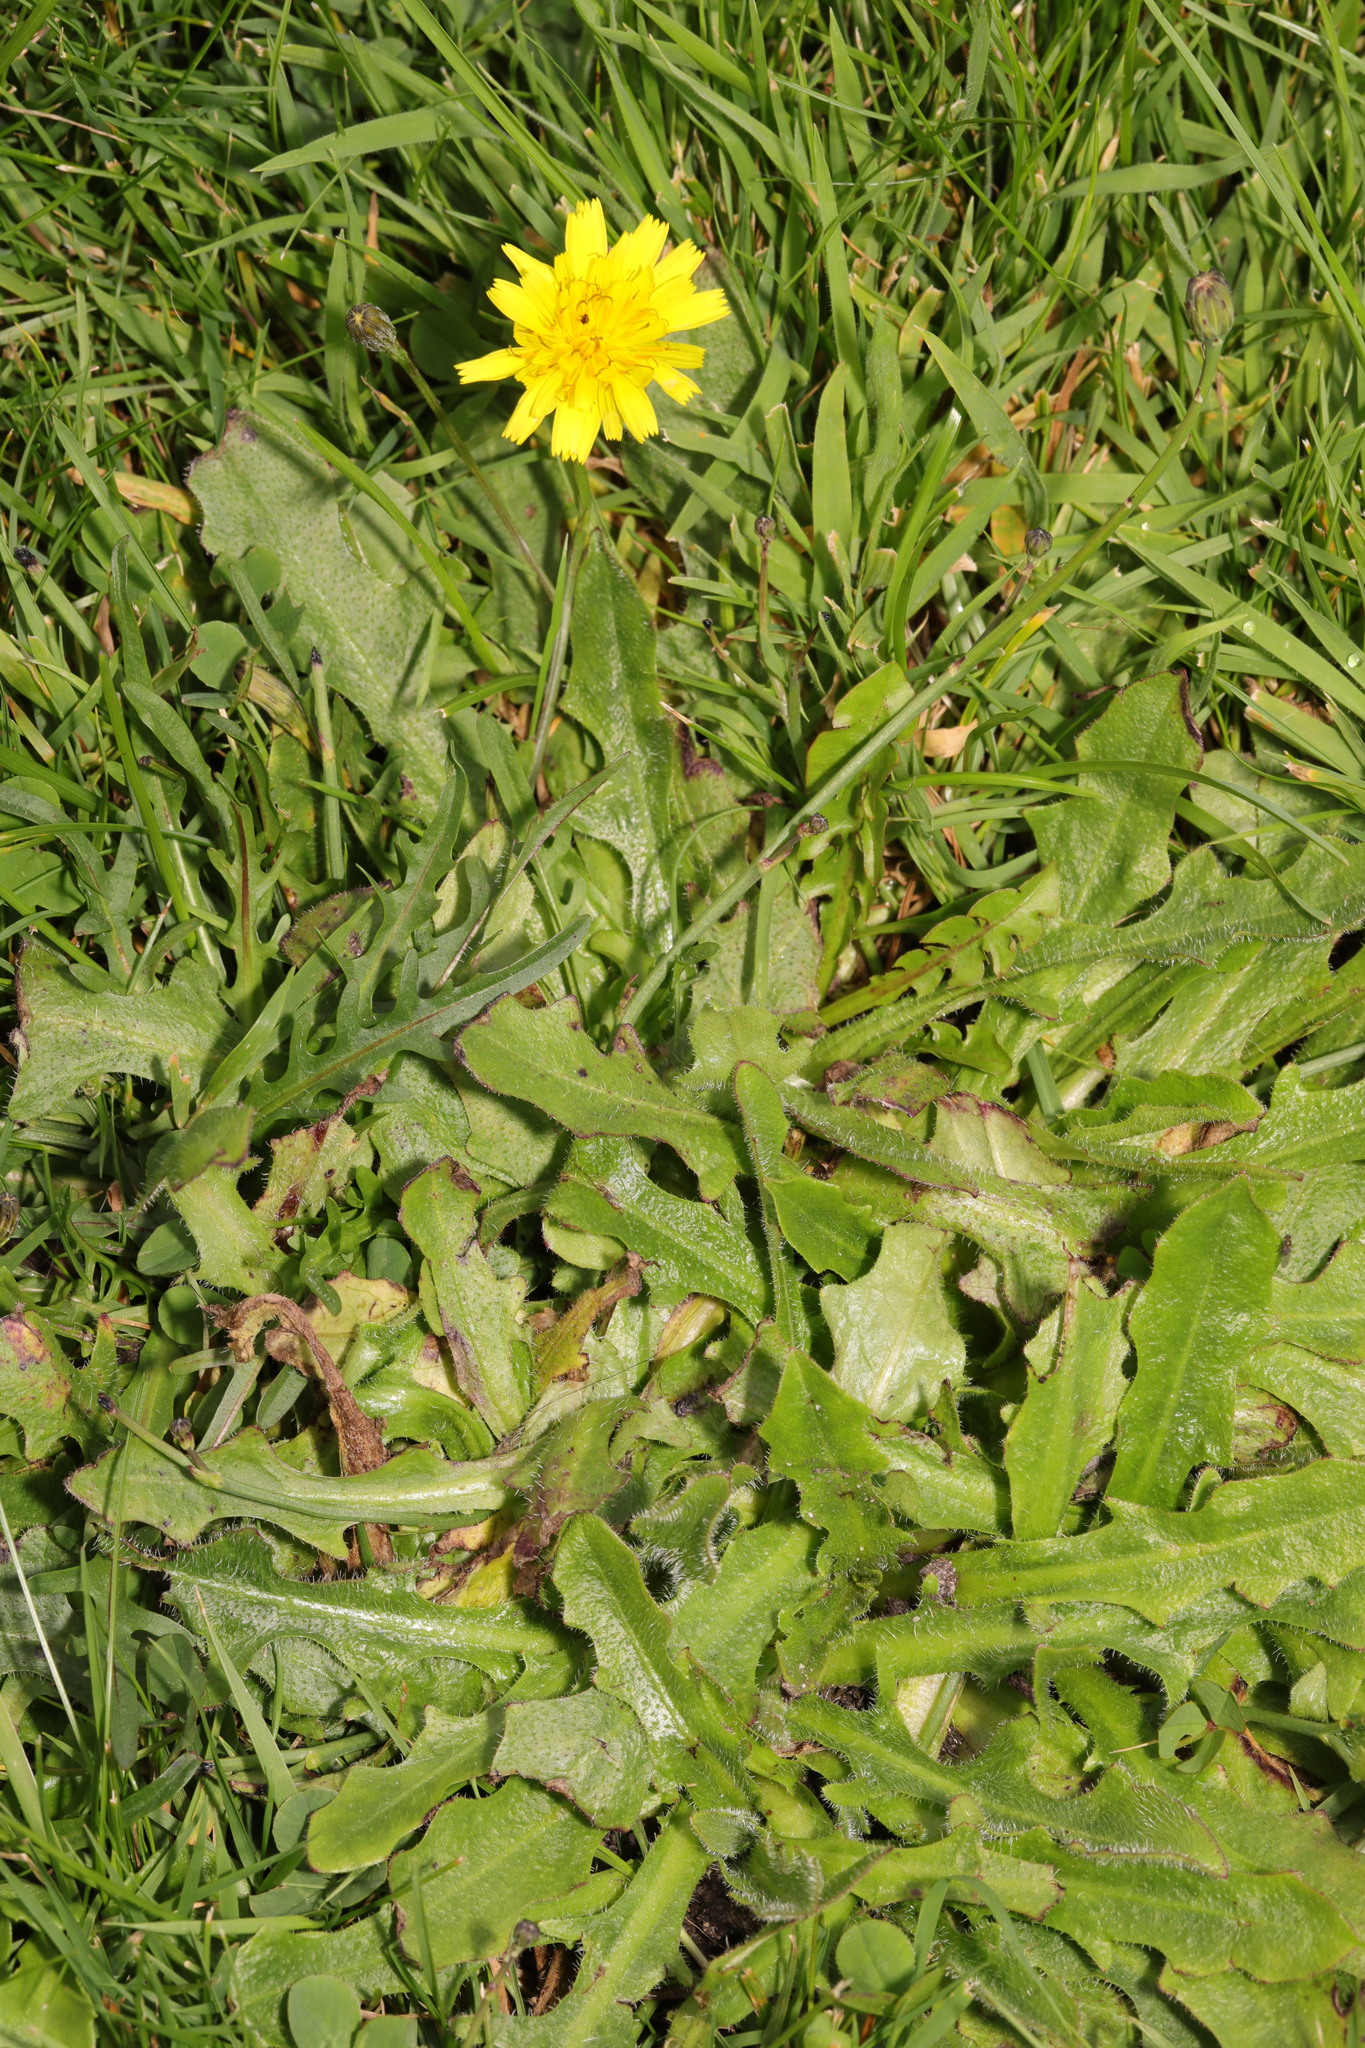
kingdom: Plantae
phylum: Tracheophyta
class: Magnoliopsida
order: Asterales
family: Asteraceae
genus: Hypochaeris
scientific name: Hypochaeris radicata
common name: Flatweed
